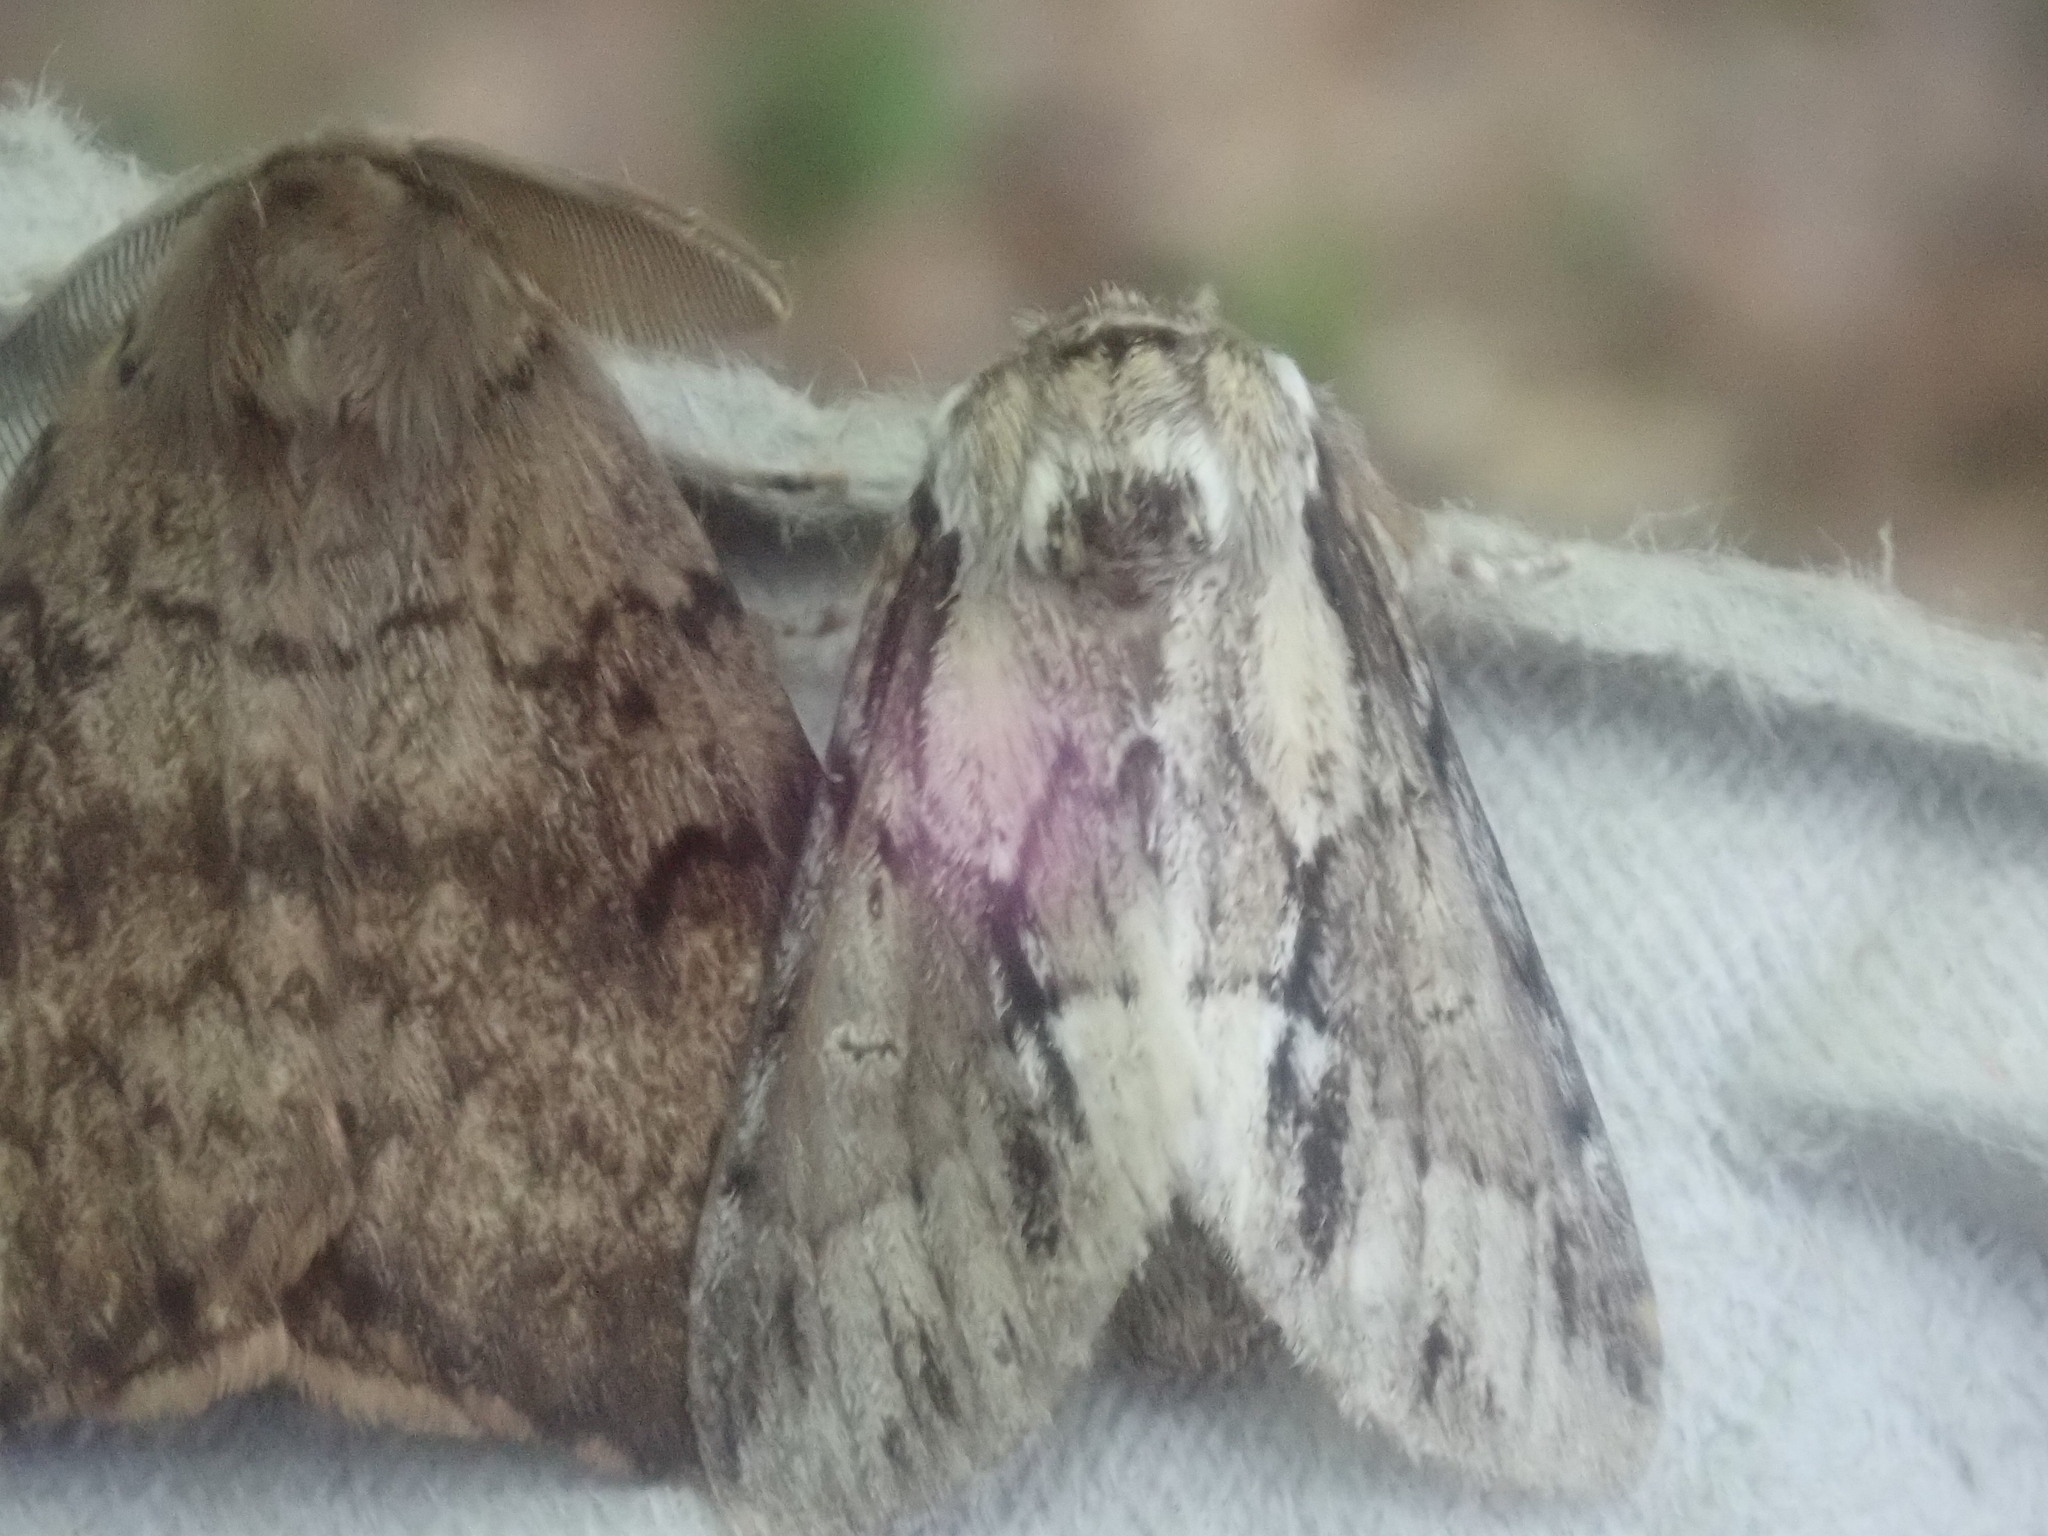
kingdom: Animalia
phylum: Arthropoda
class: Insecta
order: Lepidoptera
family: Notodontidae
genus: Paraeschra
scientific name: Paraeschra georgica
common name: Georgian prominent
